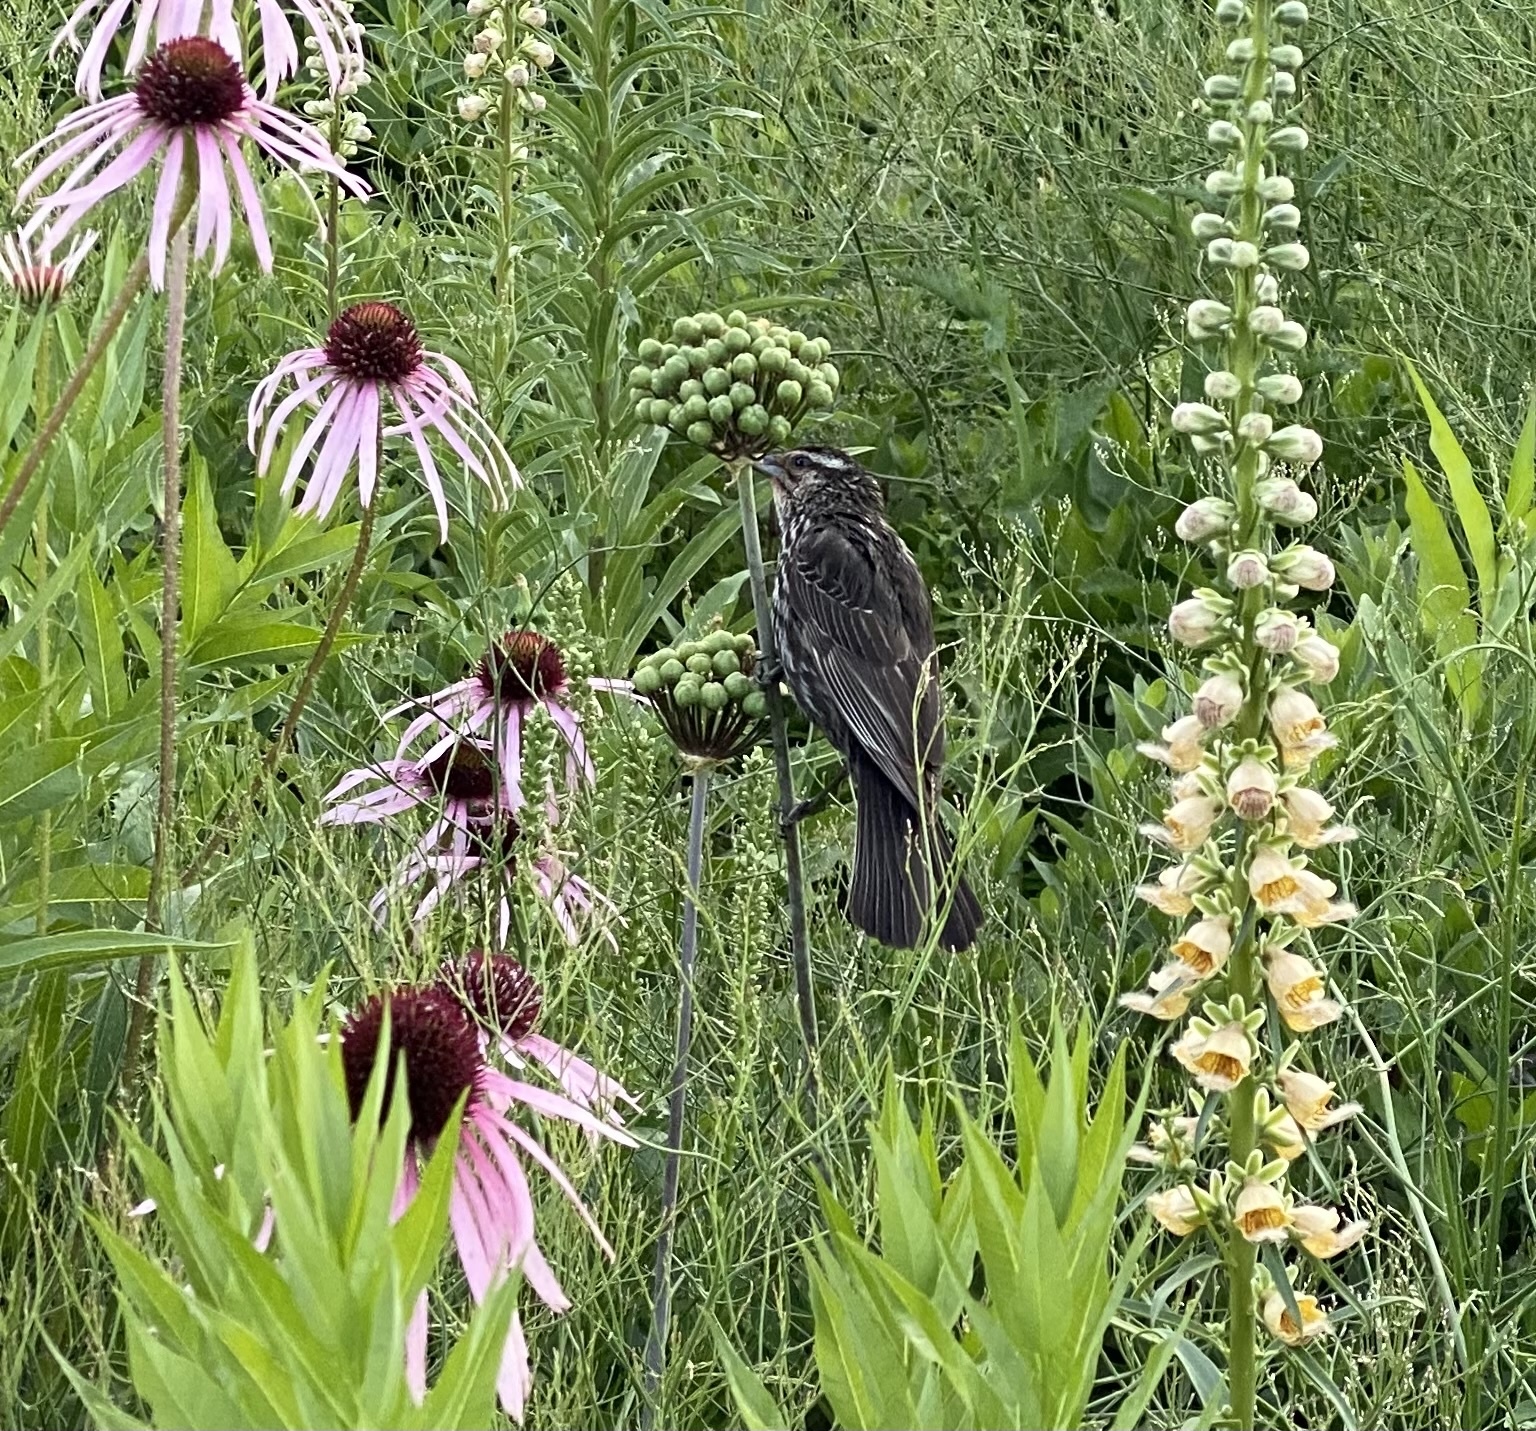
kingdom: Animalia
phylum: Chordata
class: Aves
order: Passeriformes
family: Icteridae
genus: Agelaius
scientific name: Agelaius phoeniceus
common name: Red-winged blackbird
